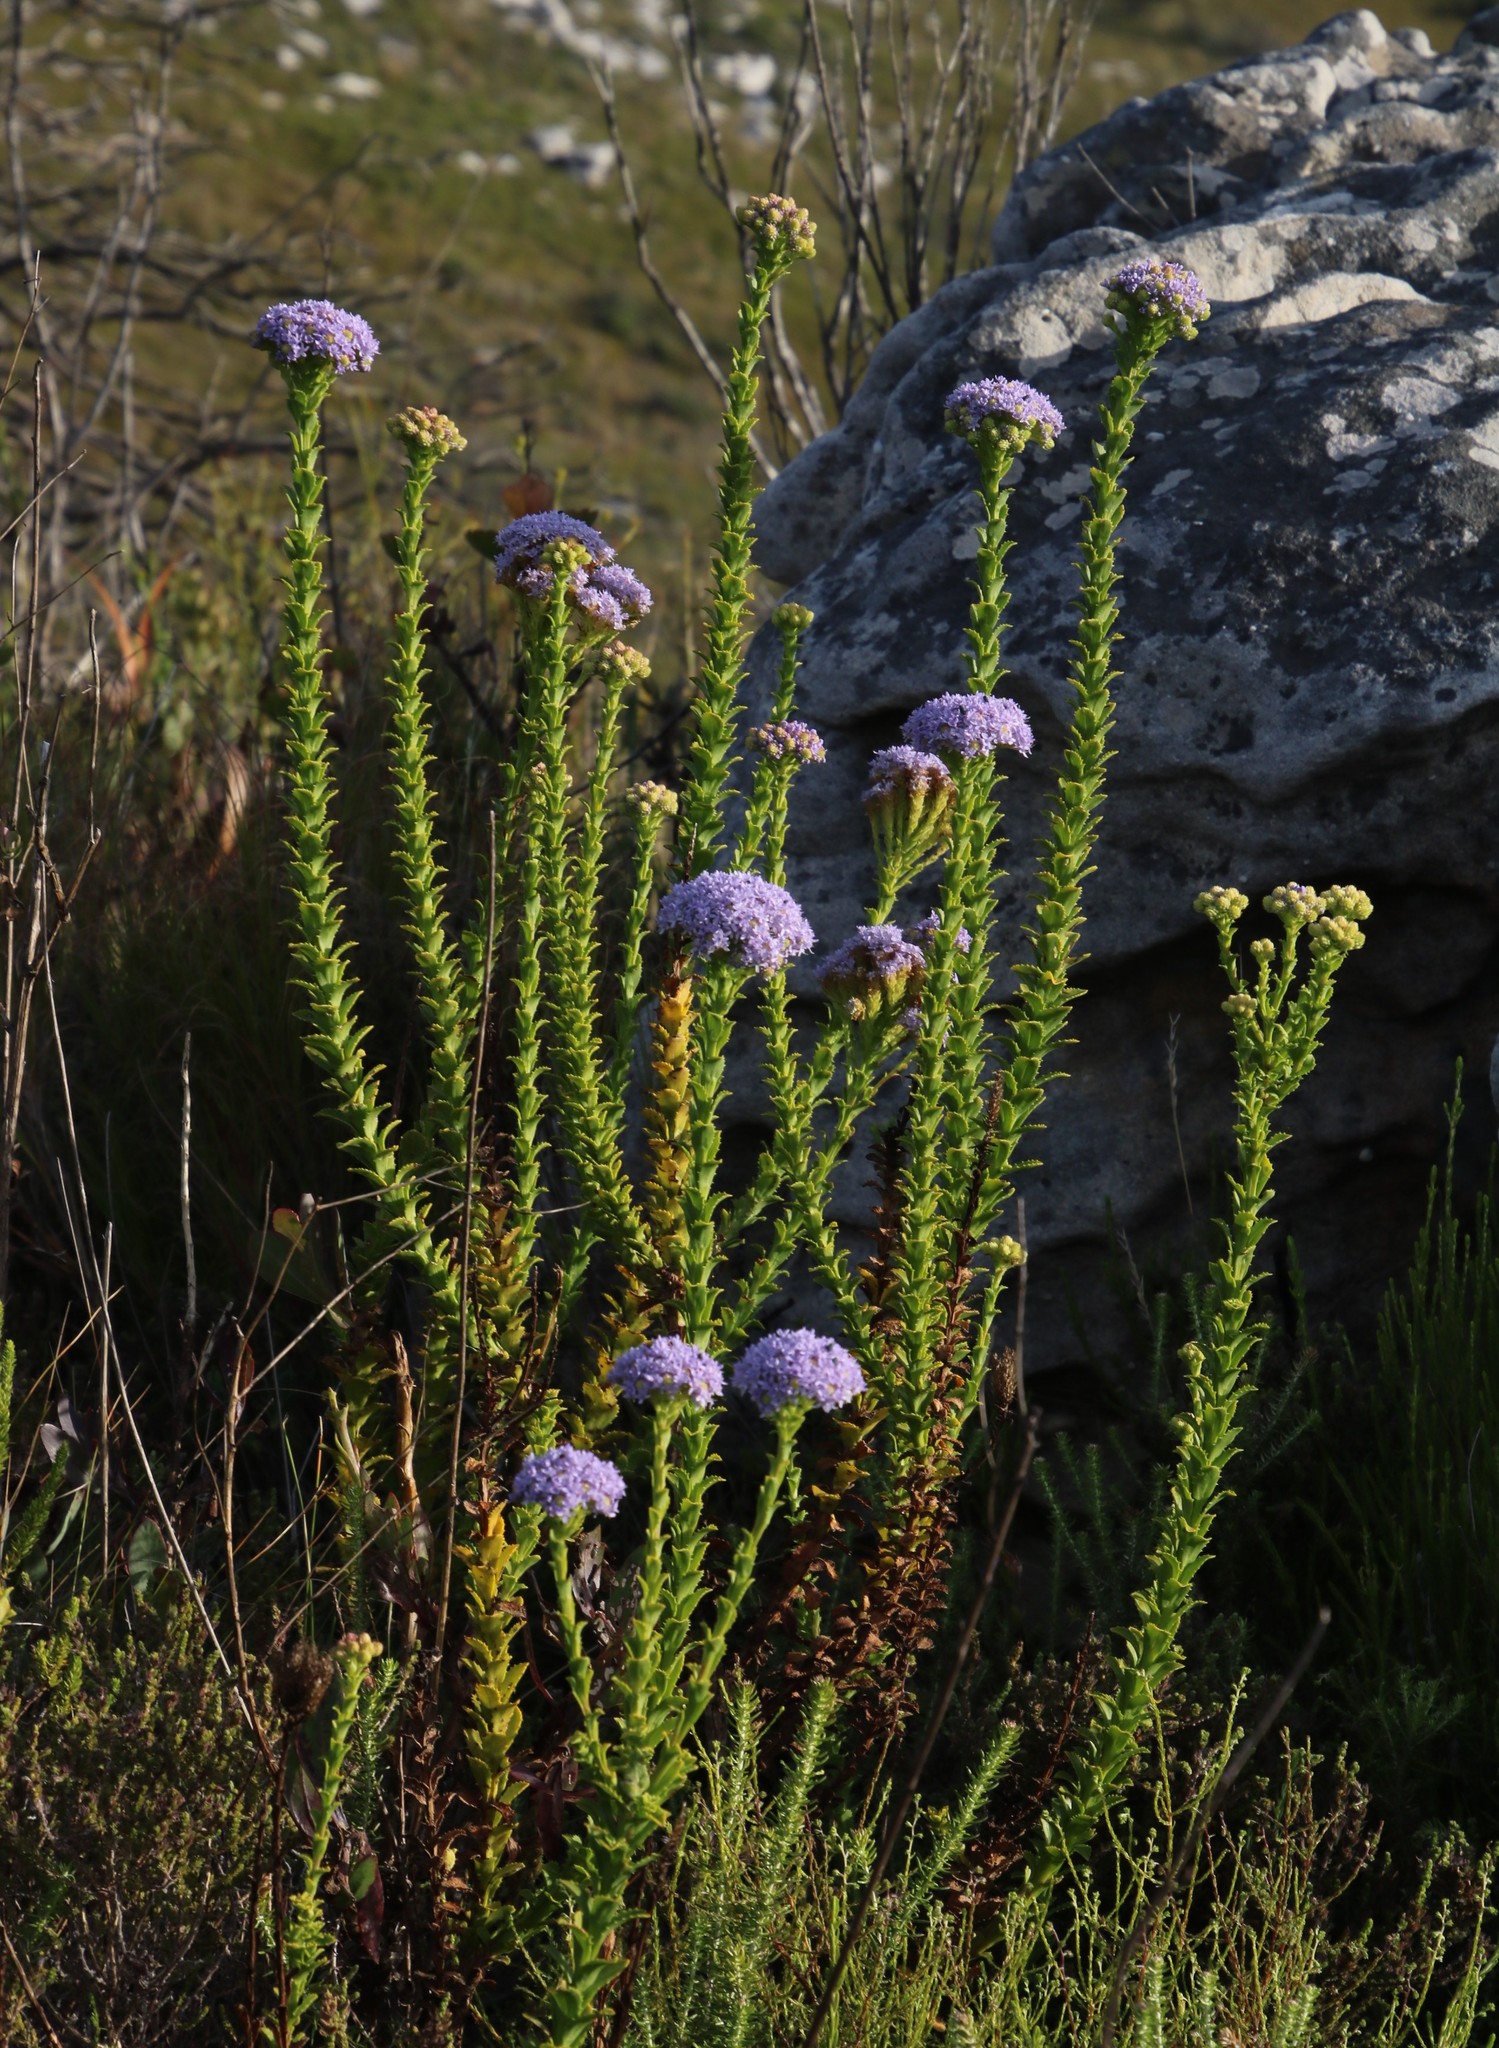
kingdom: Plantae
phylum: Tracheophyta
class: Magnoliopsida
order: Lamiales
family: Scrophulariaceae
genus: Pseudoselago
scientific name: Pseudoselago serrata
